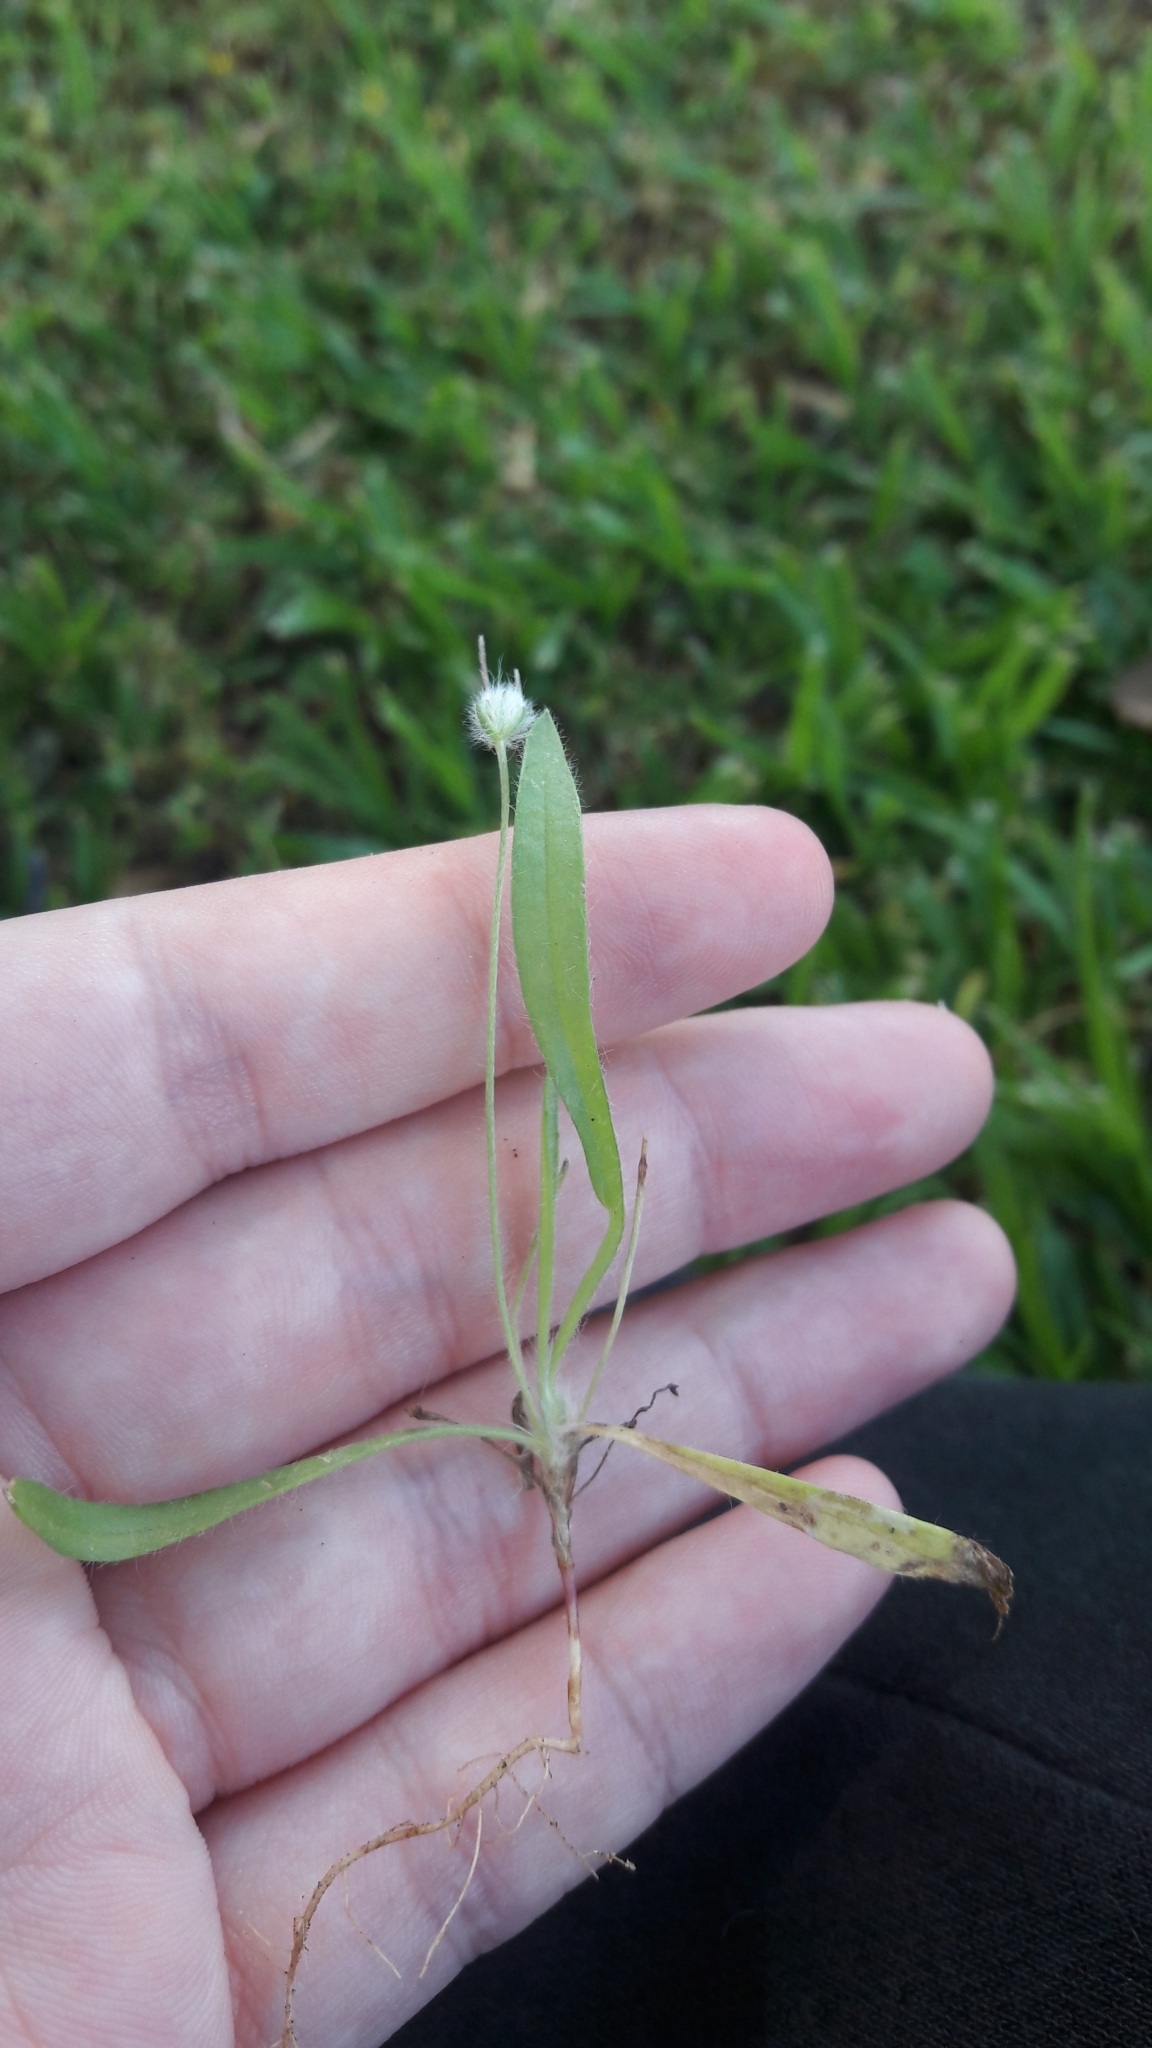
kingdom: Plantae
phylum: Tracheophyta
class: Magnoliopsida
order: Lamiales
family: Plantaginaceae
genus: Plantago
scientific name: Plantago lagopus
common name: Hare-foot plantain
